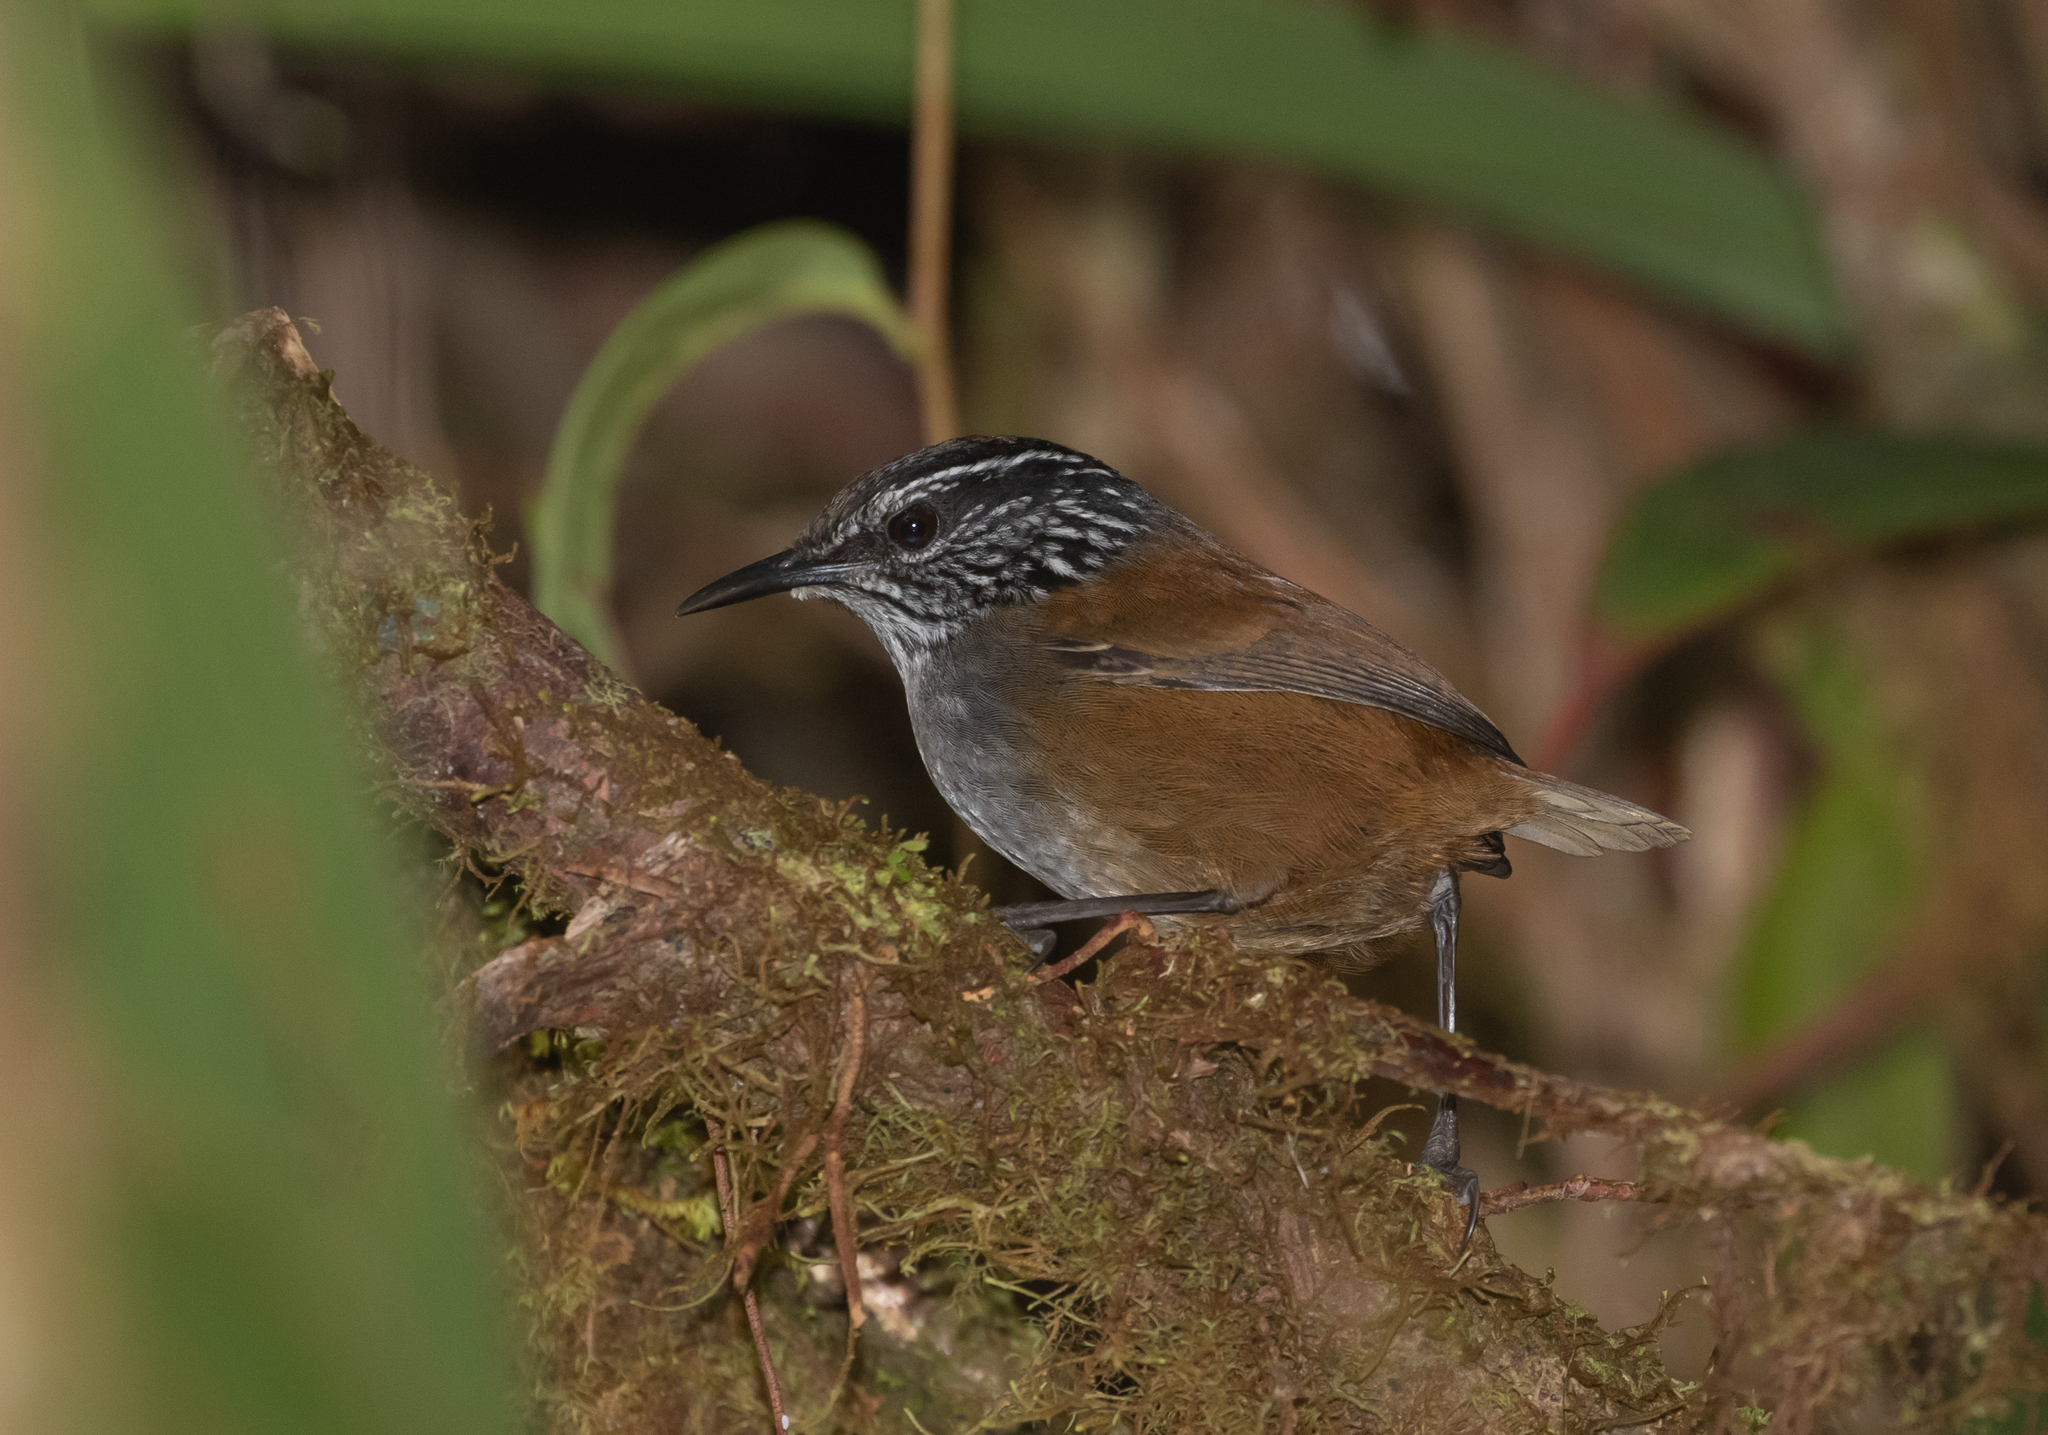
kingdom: Animalia
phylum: Chordata
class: Aves
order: Passeriformes
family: Troglodytidae
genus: Henicorhina
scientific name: Henicorhina negreti
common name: Munchique wood-wren
